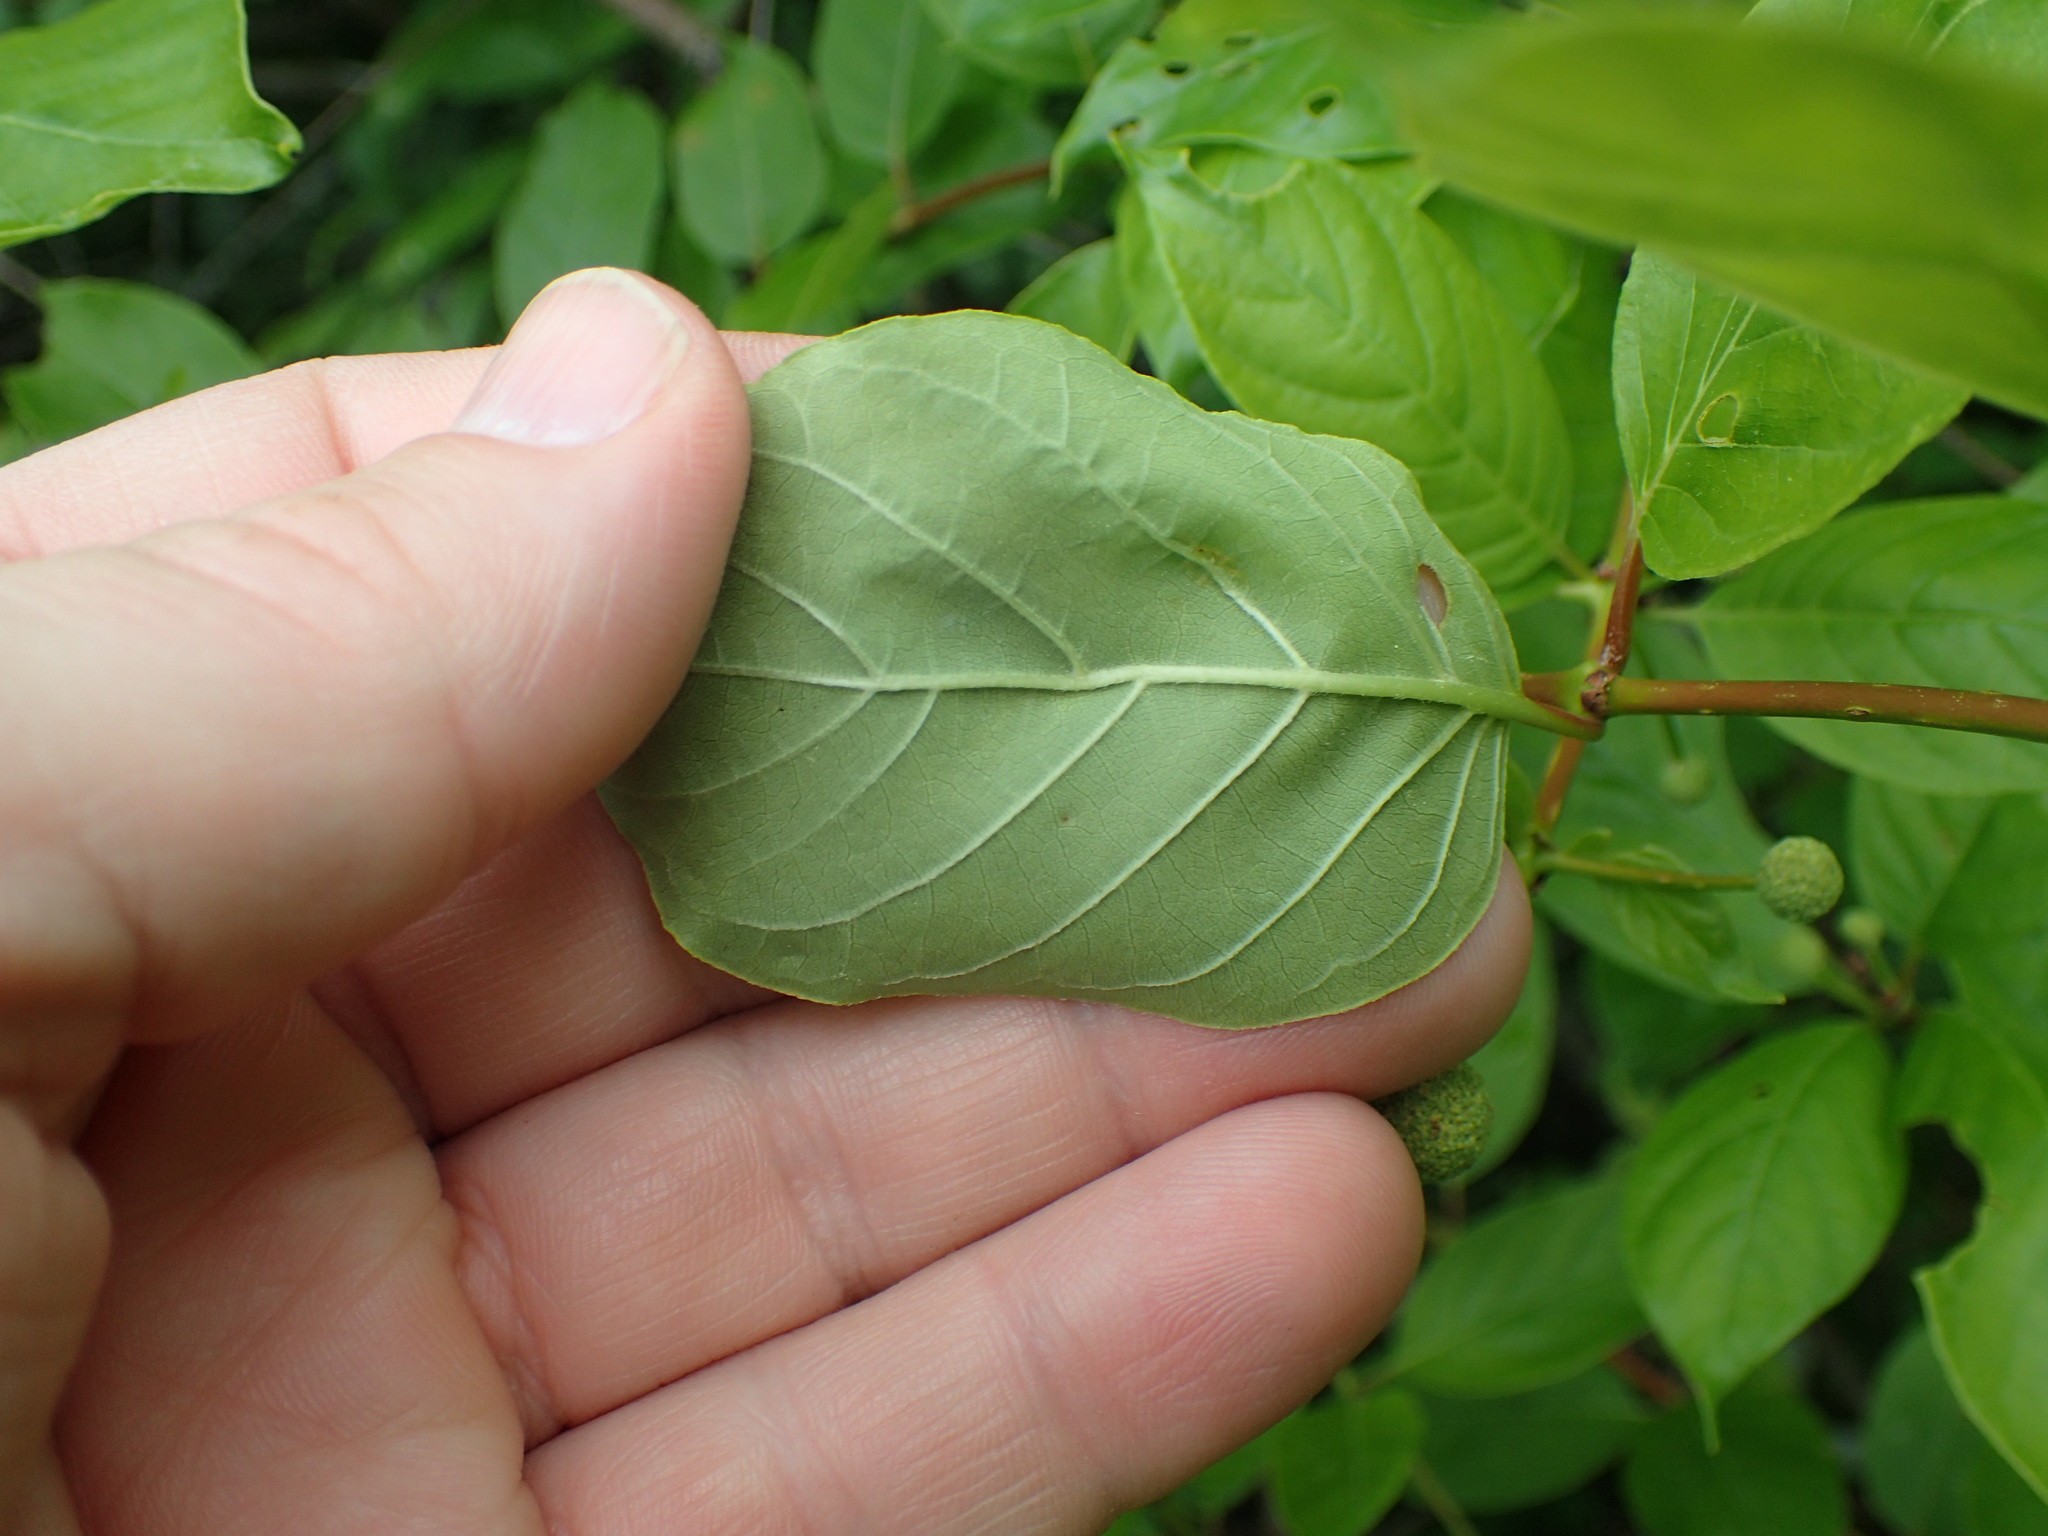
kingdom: Plantae
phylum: Tracheophyta
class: Magnoliopsida
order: Gentianales
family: Rubiaceae
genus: Cephalanthus
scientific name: Cephalanthus occidentalis
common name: Button-willow
